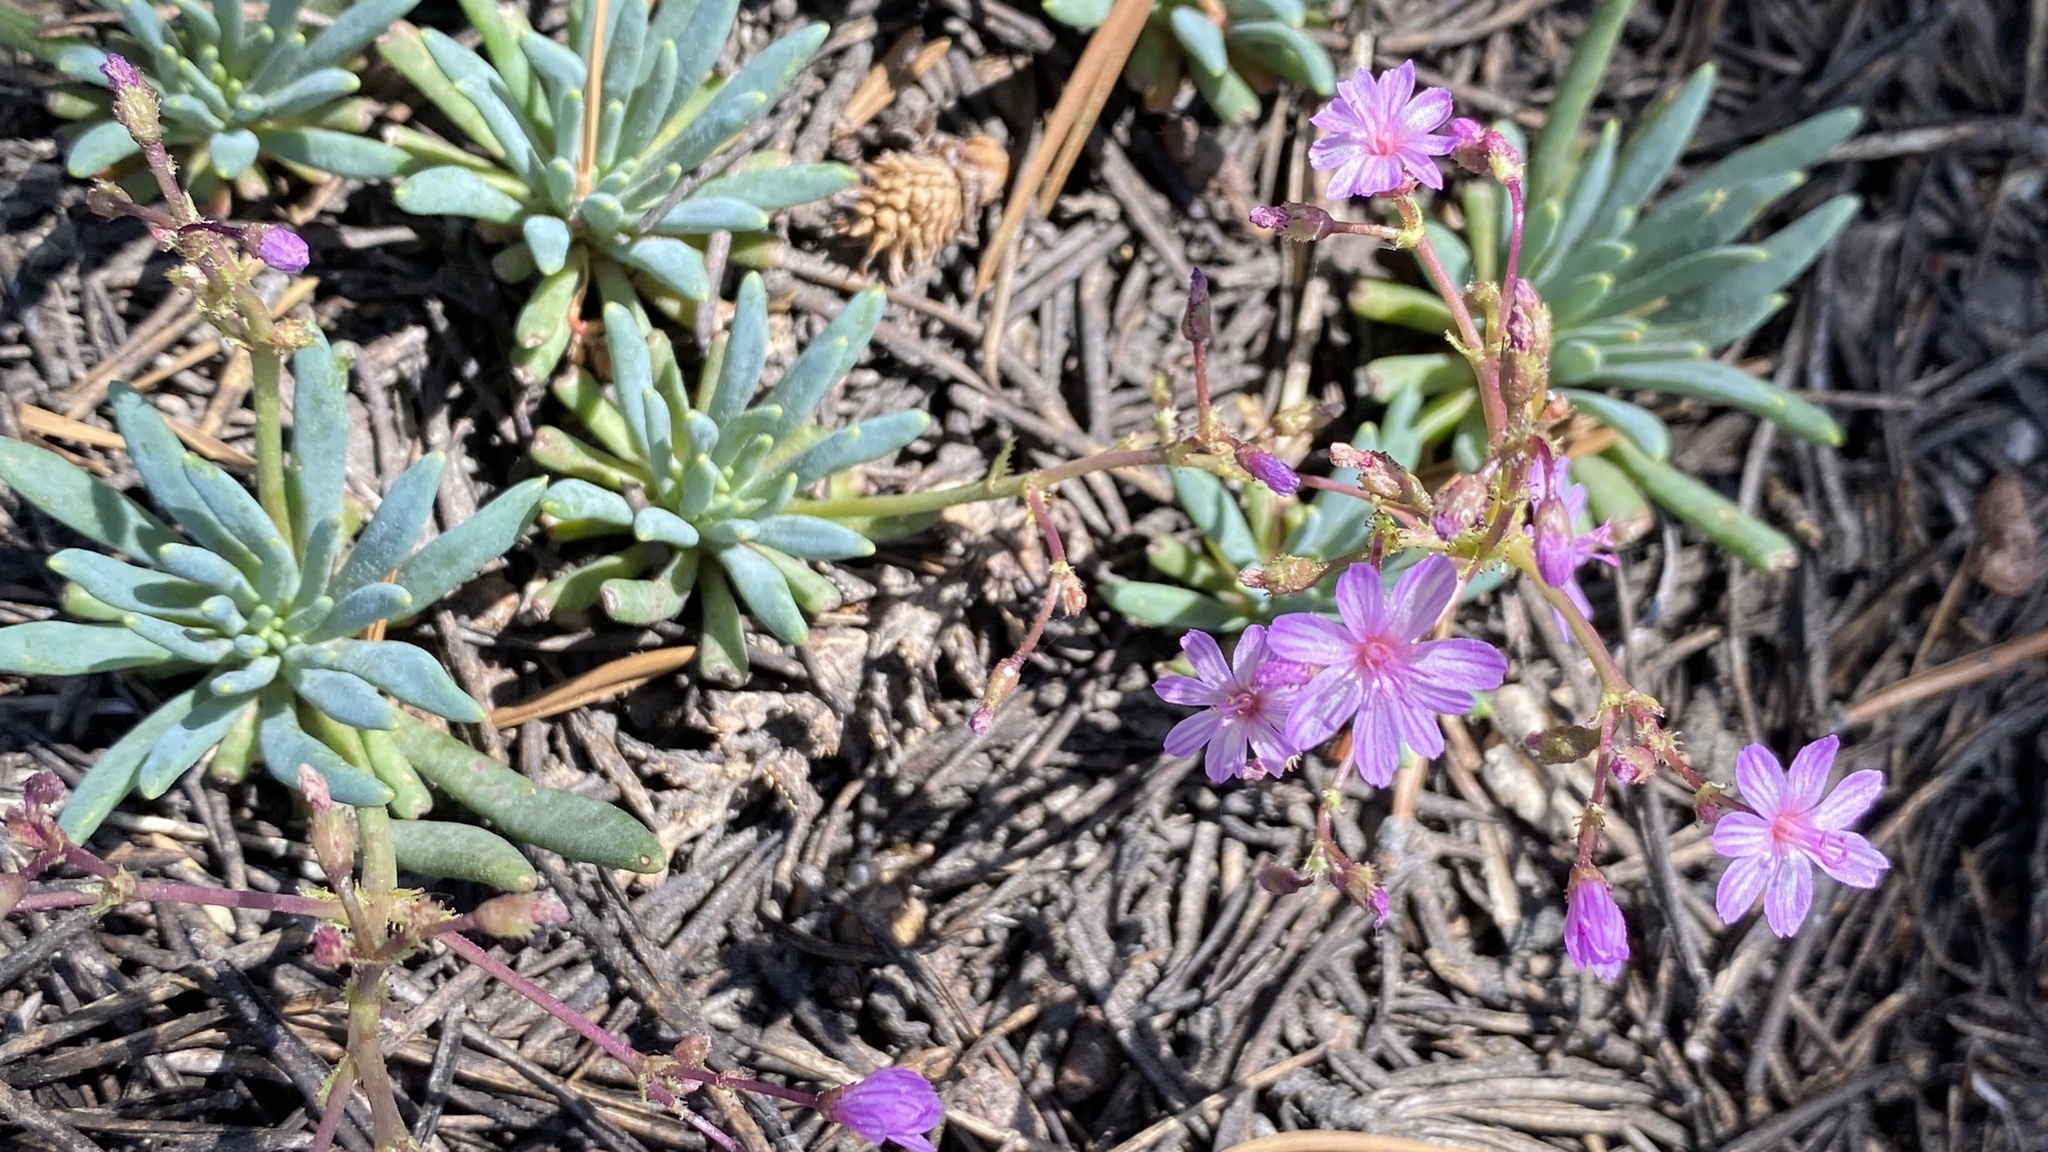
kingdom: Plantae
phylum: Tracheophyta
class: Magnoliopsida
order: Caryophyllales
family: Montiaceae
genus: Lewisia
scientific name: Lewisia leeana
